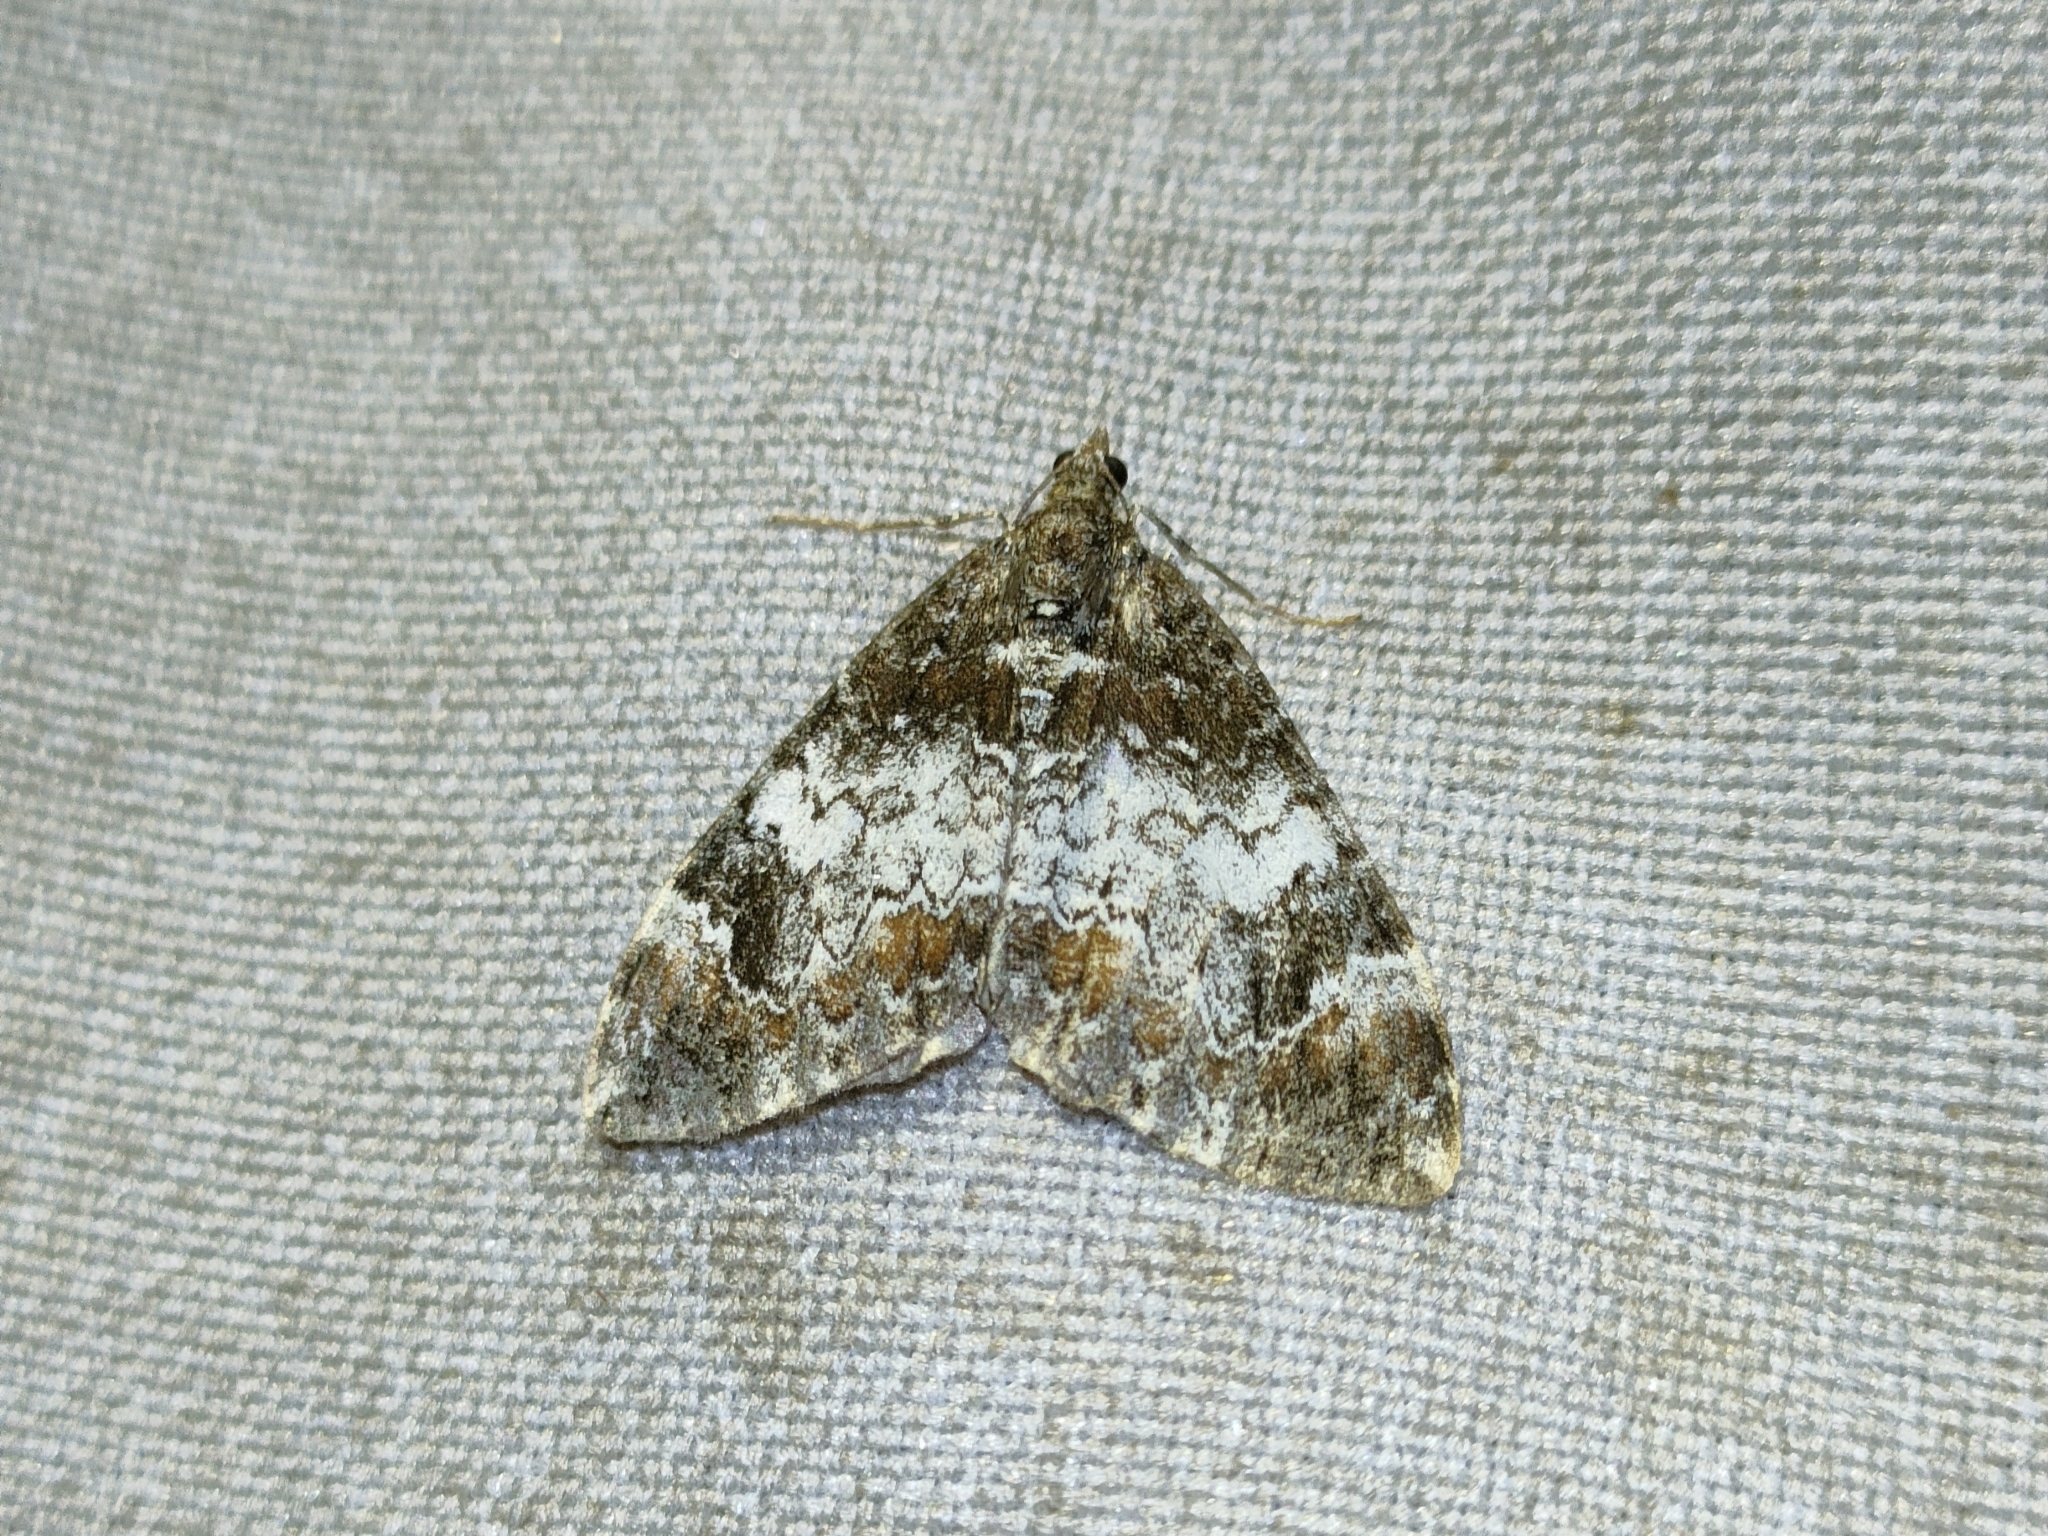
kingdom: Animalia
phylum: Arthropoda
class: Insecta
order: Lepidoptera
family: Geometridae
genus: Dysstroma
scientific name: Dysstroma truncata
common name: Common marbled carpet
